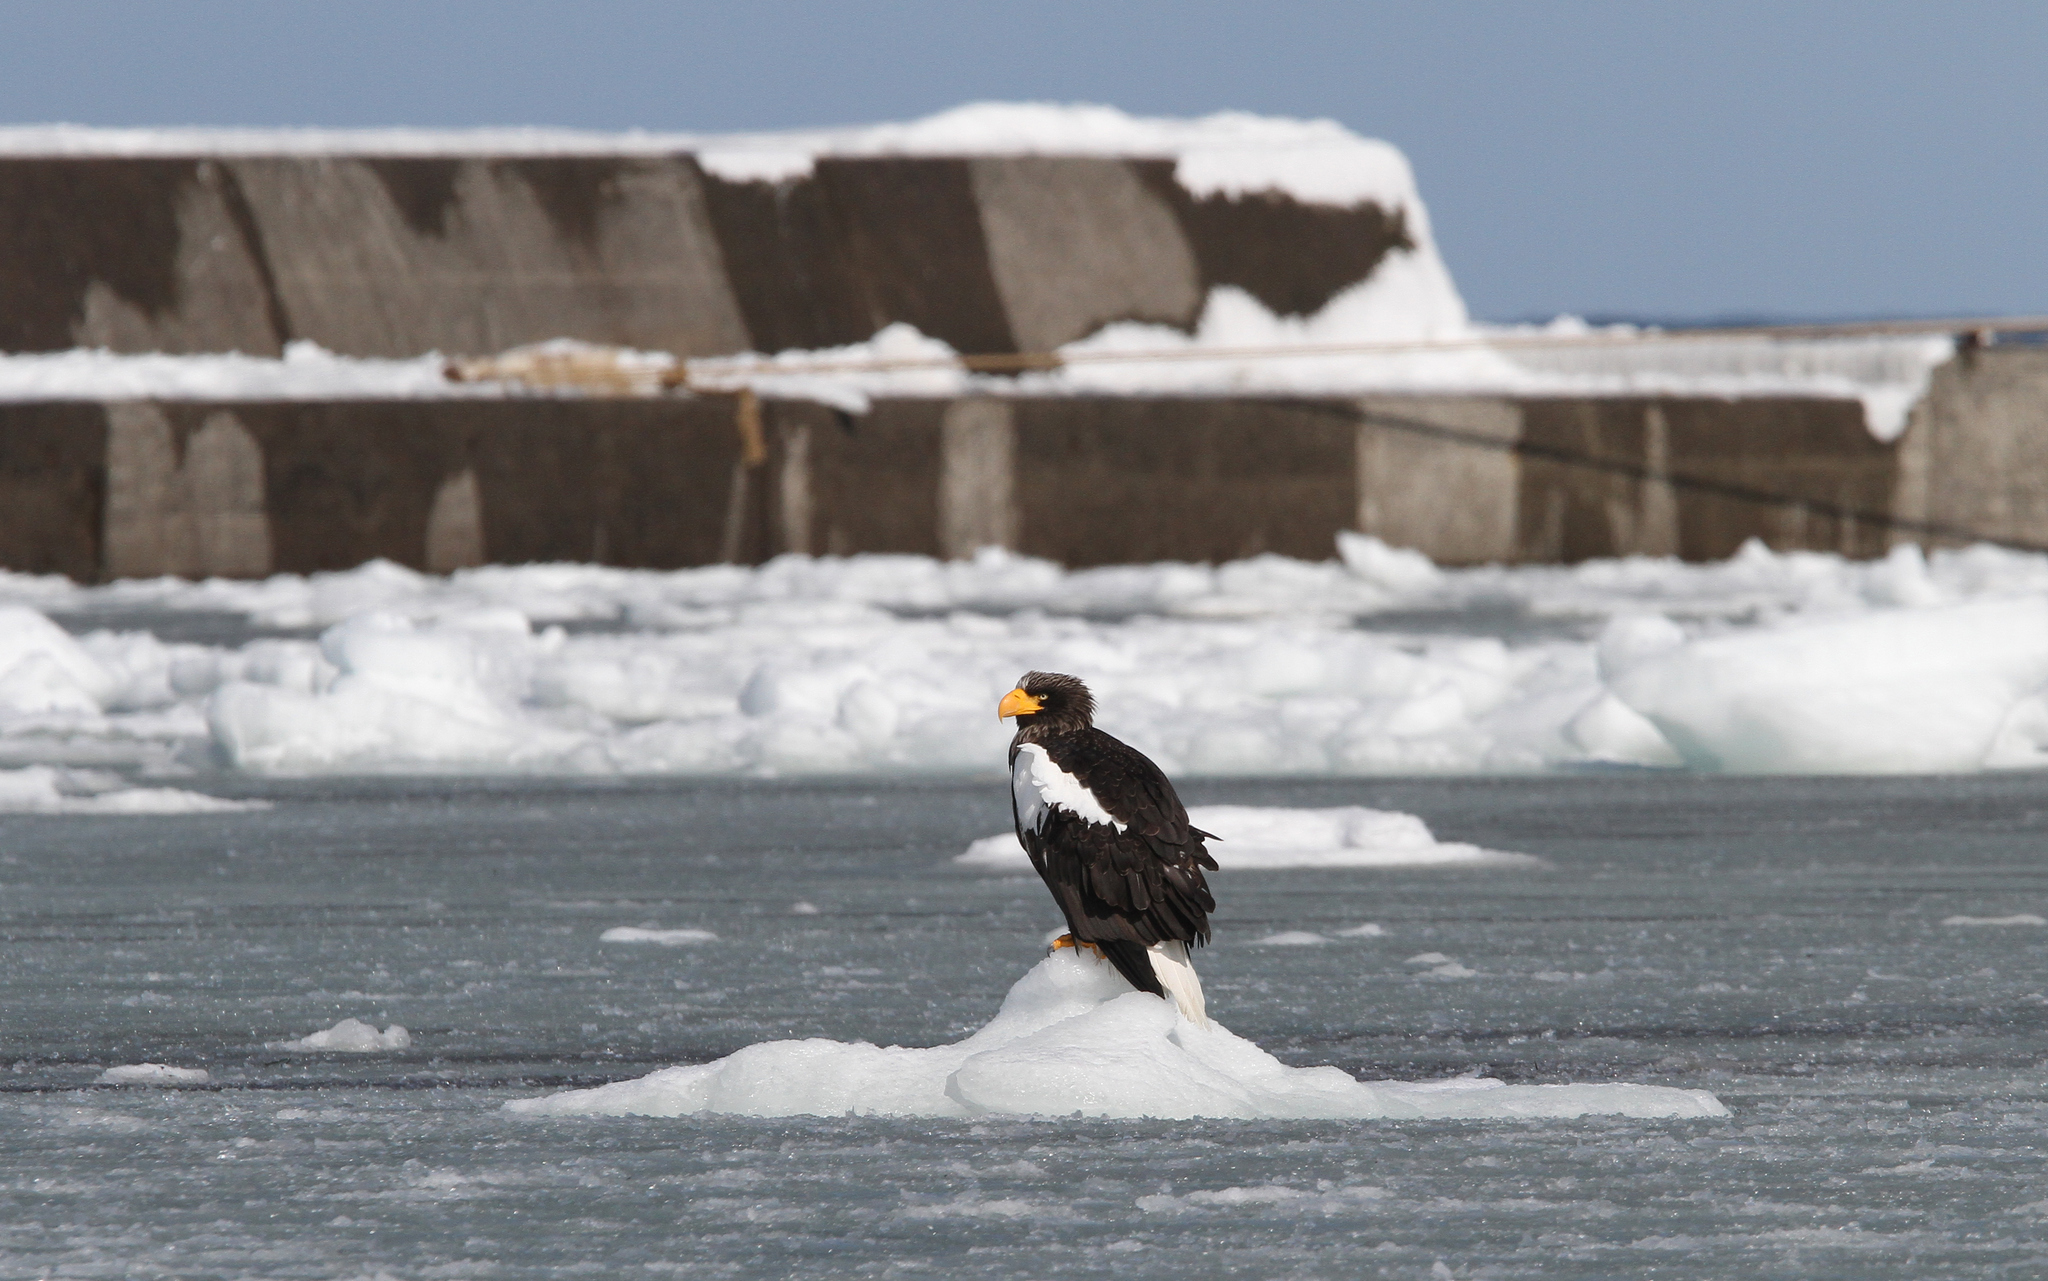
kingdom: Animalia
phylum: Chordata
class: Aves
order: Accipitriformes
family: Accipitridae
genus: Haliaeetus
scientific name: Haliaeetus pelagicus
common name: Steller's sea eagle
